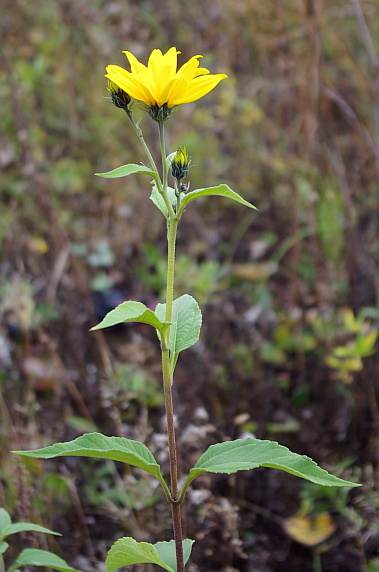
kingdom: Plantae
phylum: Tracheophyta
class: Magnoliopsida
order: Asterales
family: Asteraceae
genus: Helianthus
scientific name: Helianthus tuberosus
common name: Jerusalem artichoke
